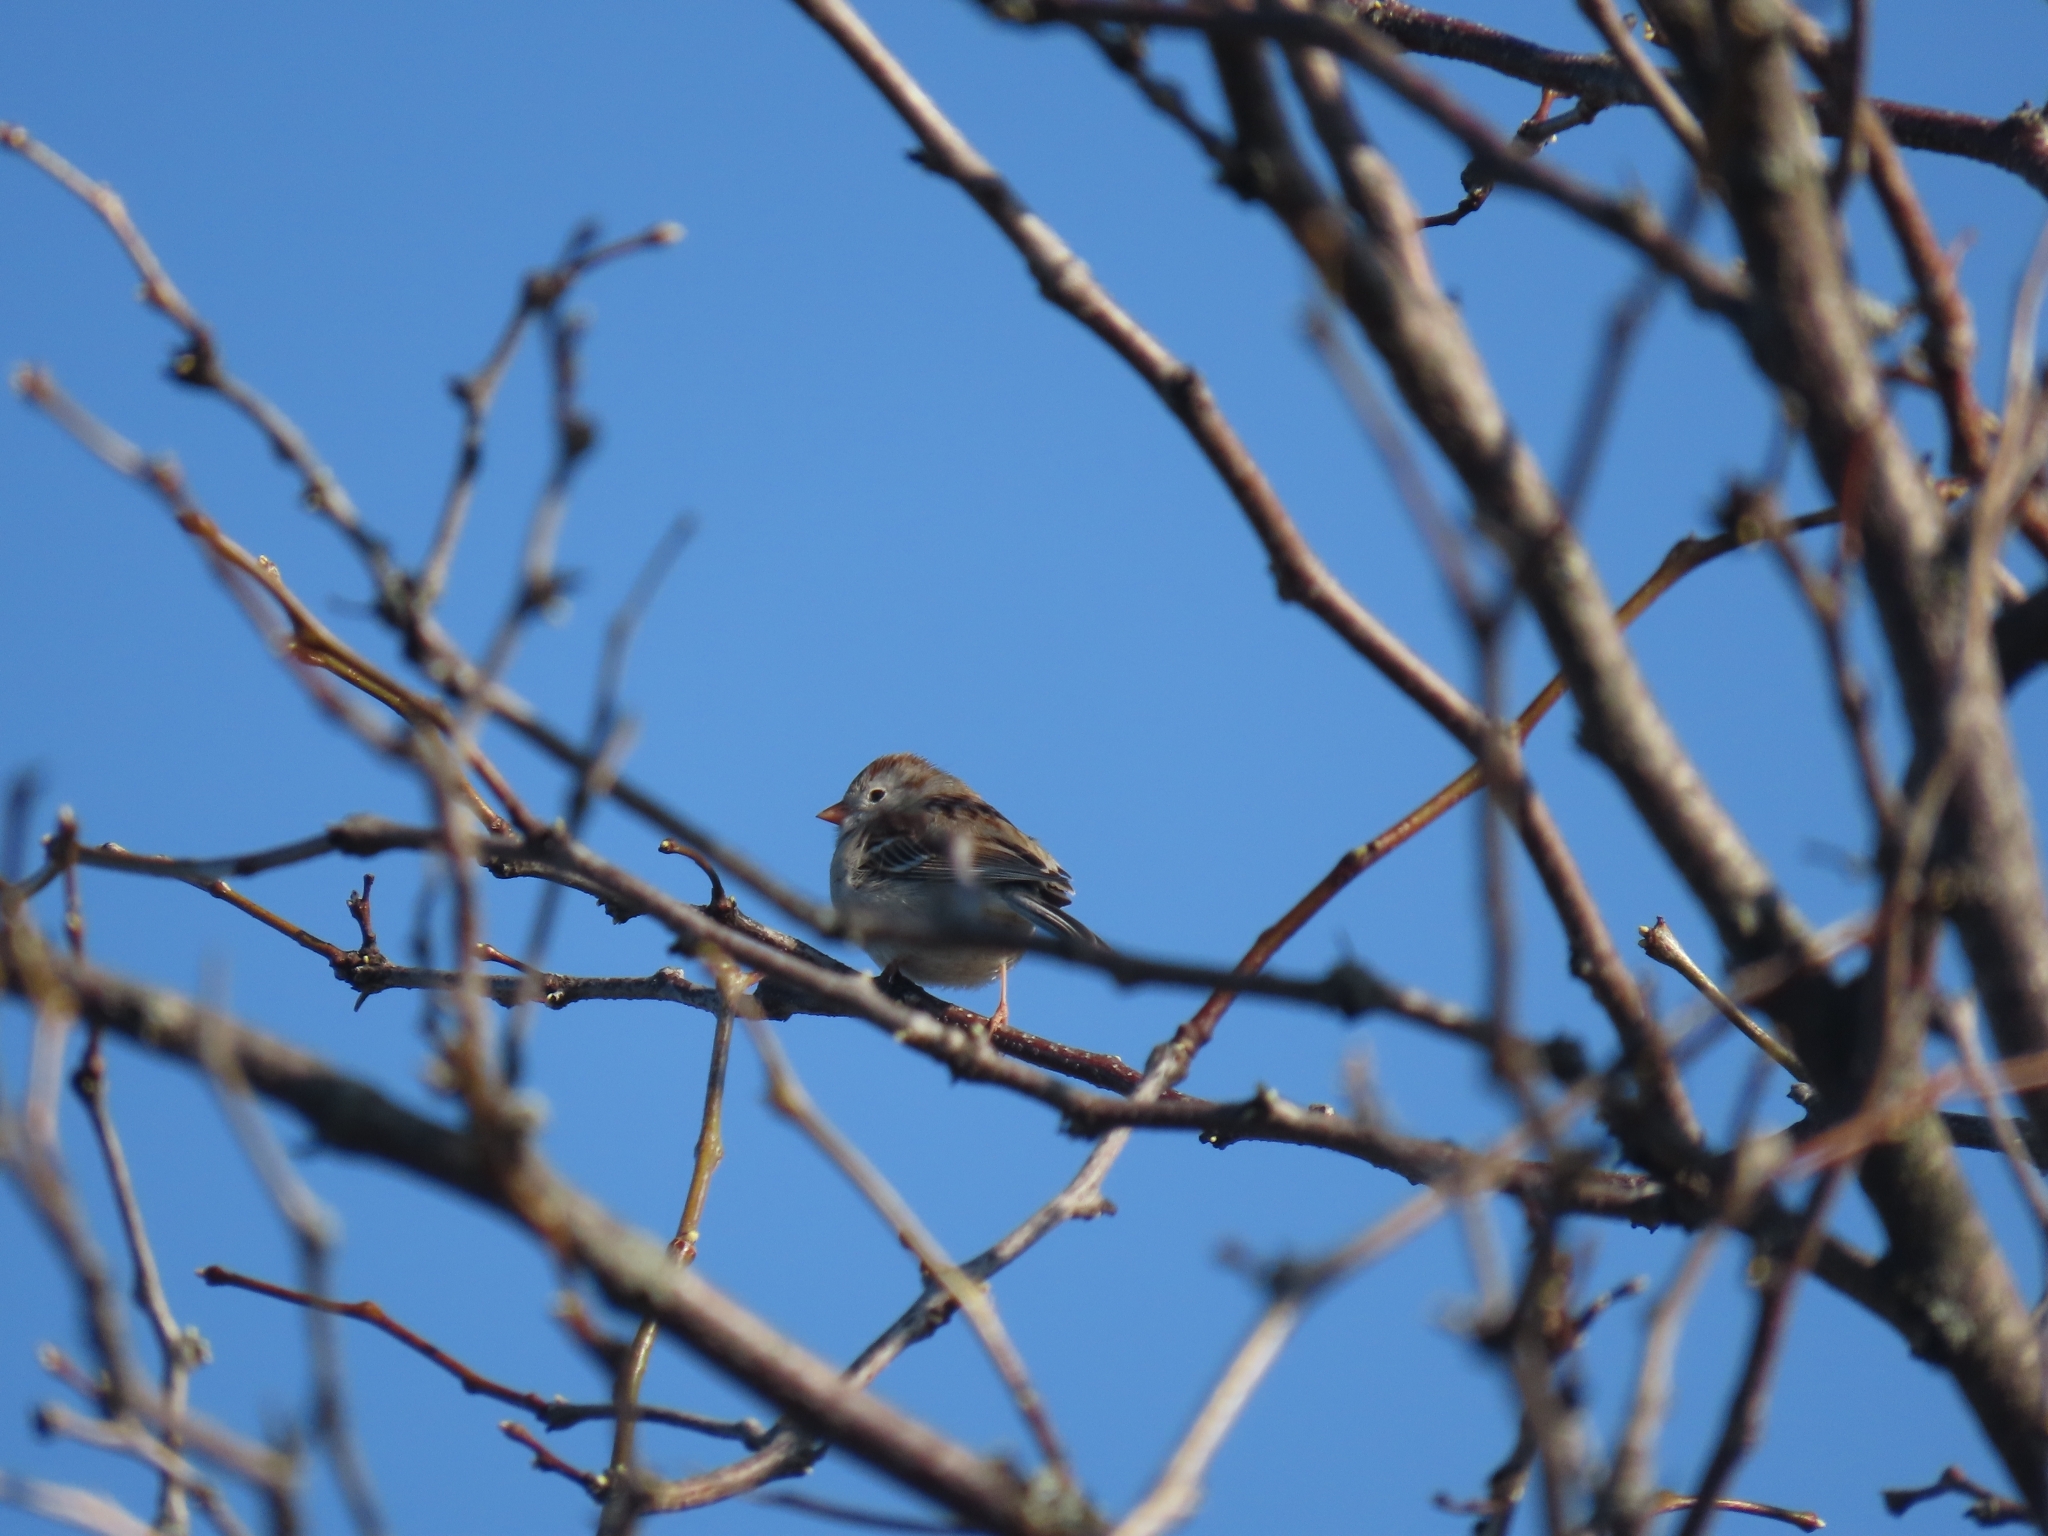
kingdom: Animalia
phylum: Chordata
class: Aves
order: Passeriformes
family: Passerellidae
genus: Spizella
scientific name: Spizella pusilla
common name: Field sparrow
